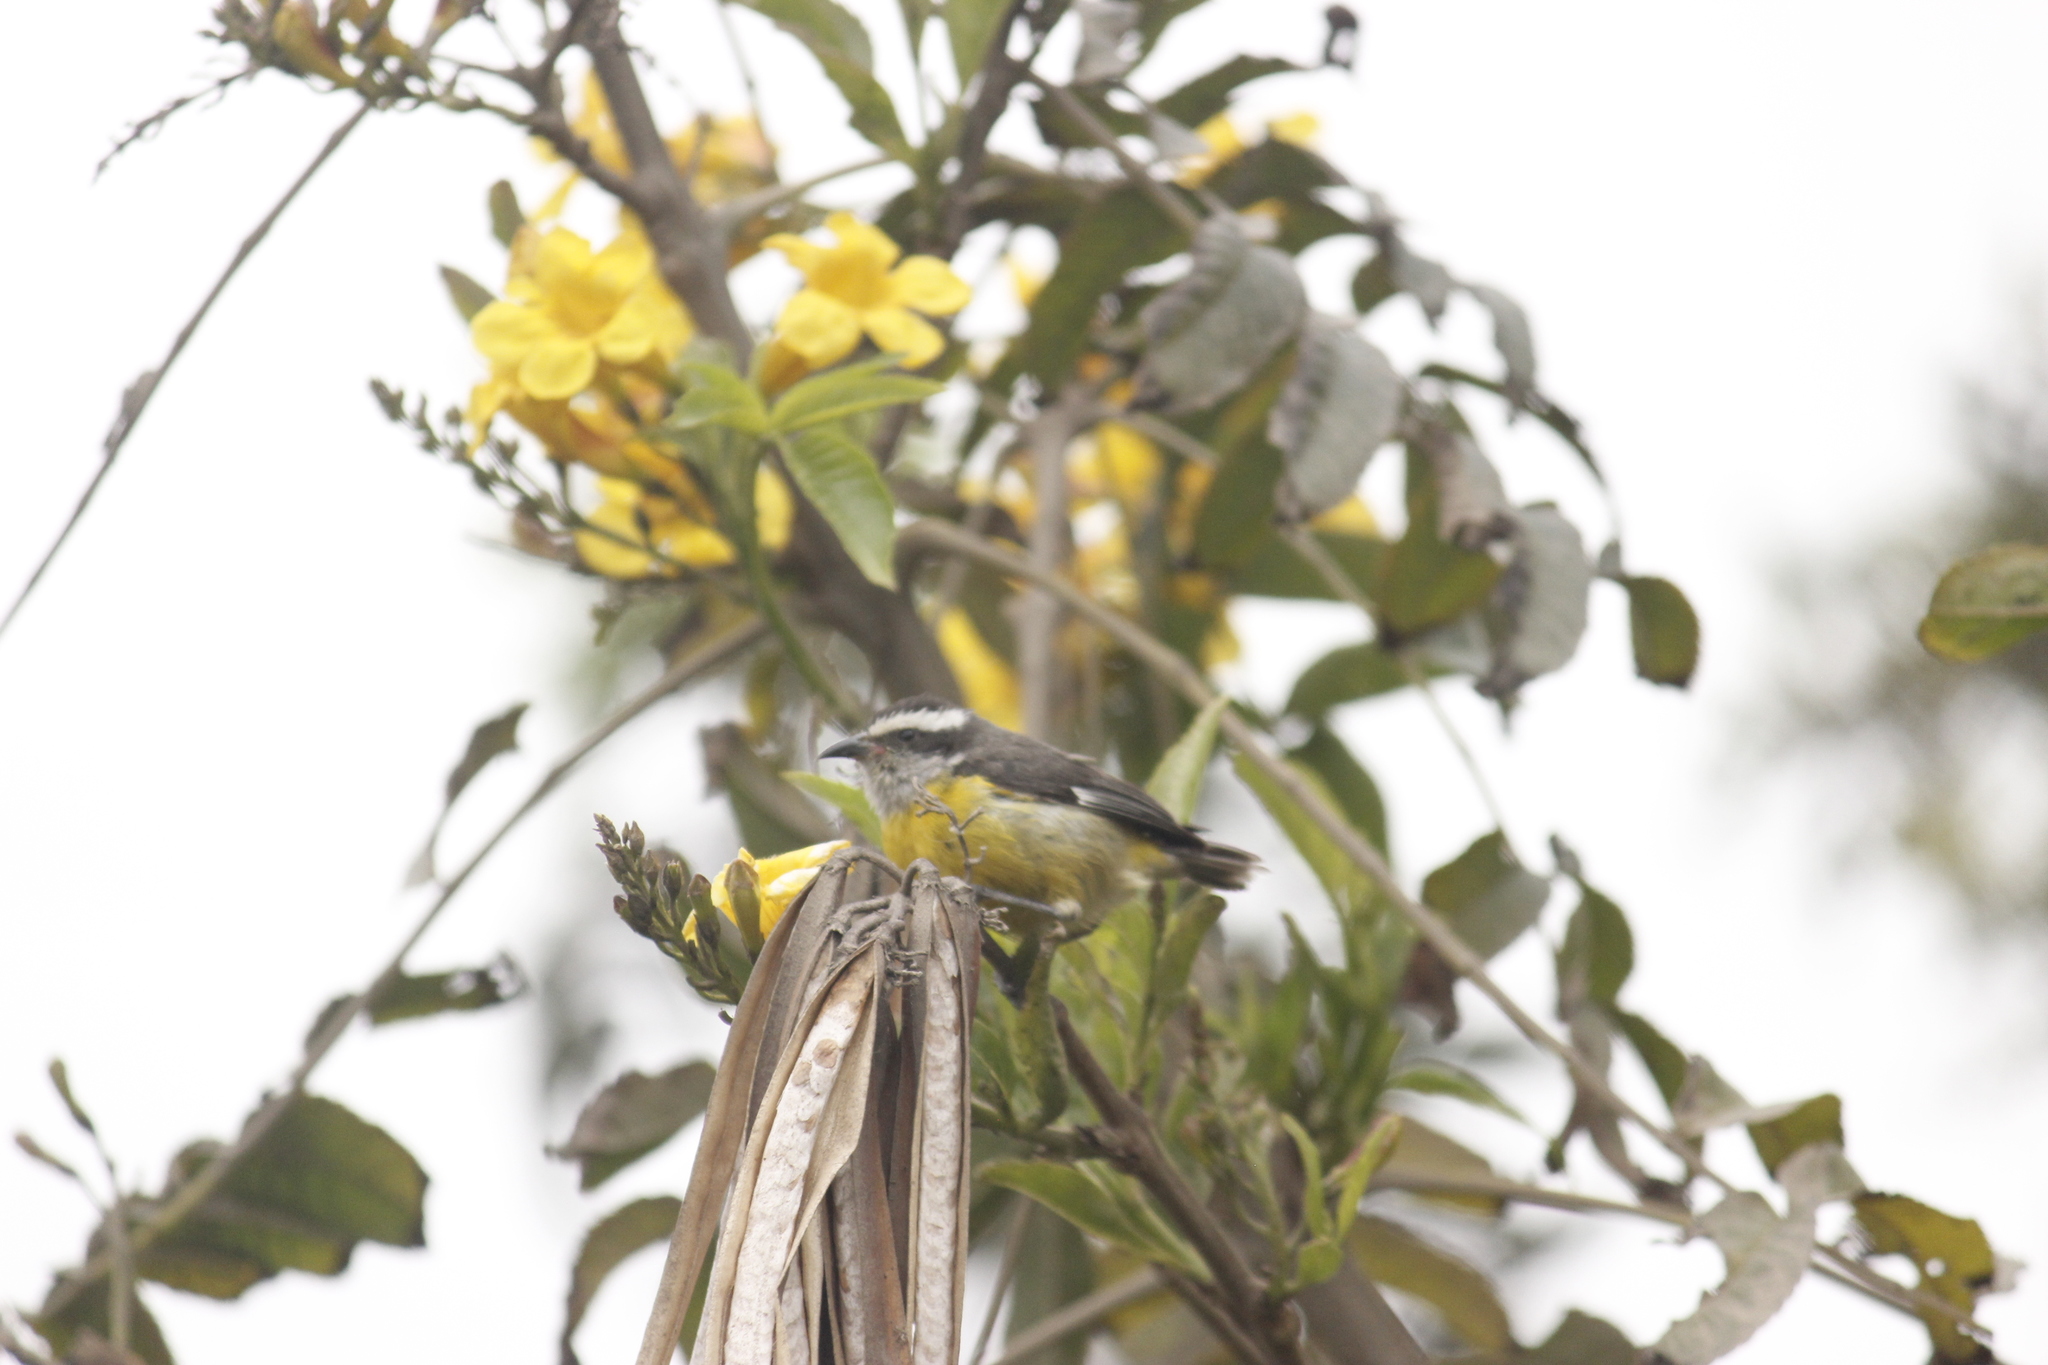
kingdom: Animalia
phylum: Chordata
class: Aves
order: Passeriformes
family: Thraupidae
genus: Coereba
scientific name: Coereba flaveola
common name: Bananaquit
